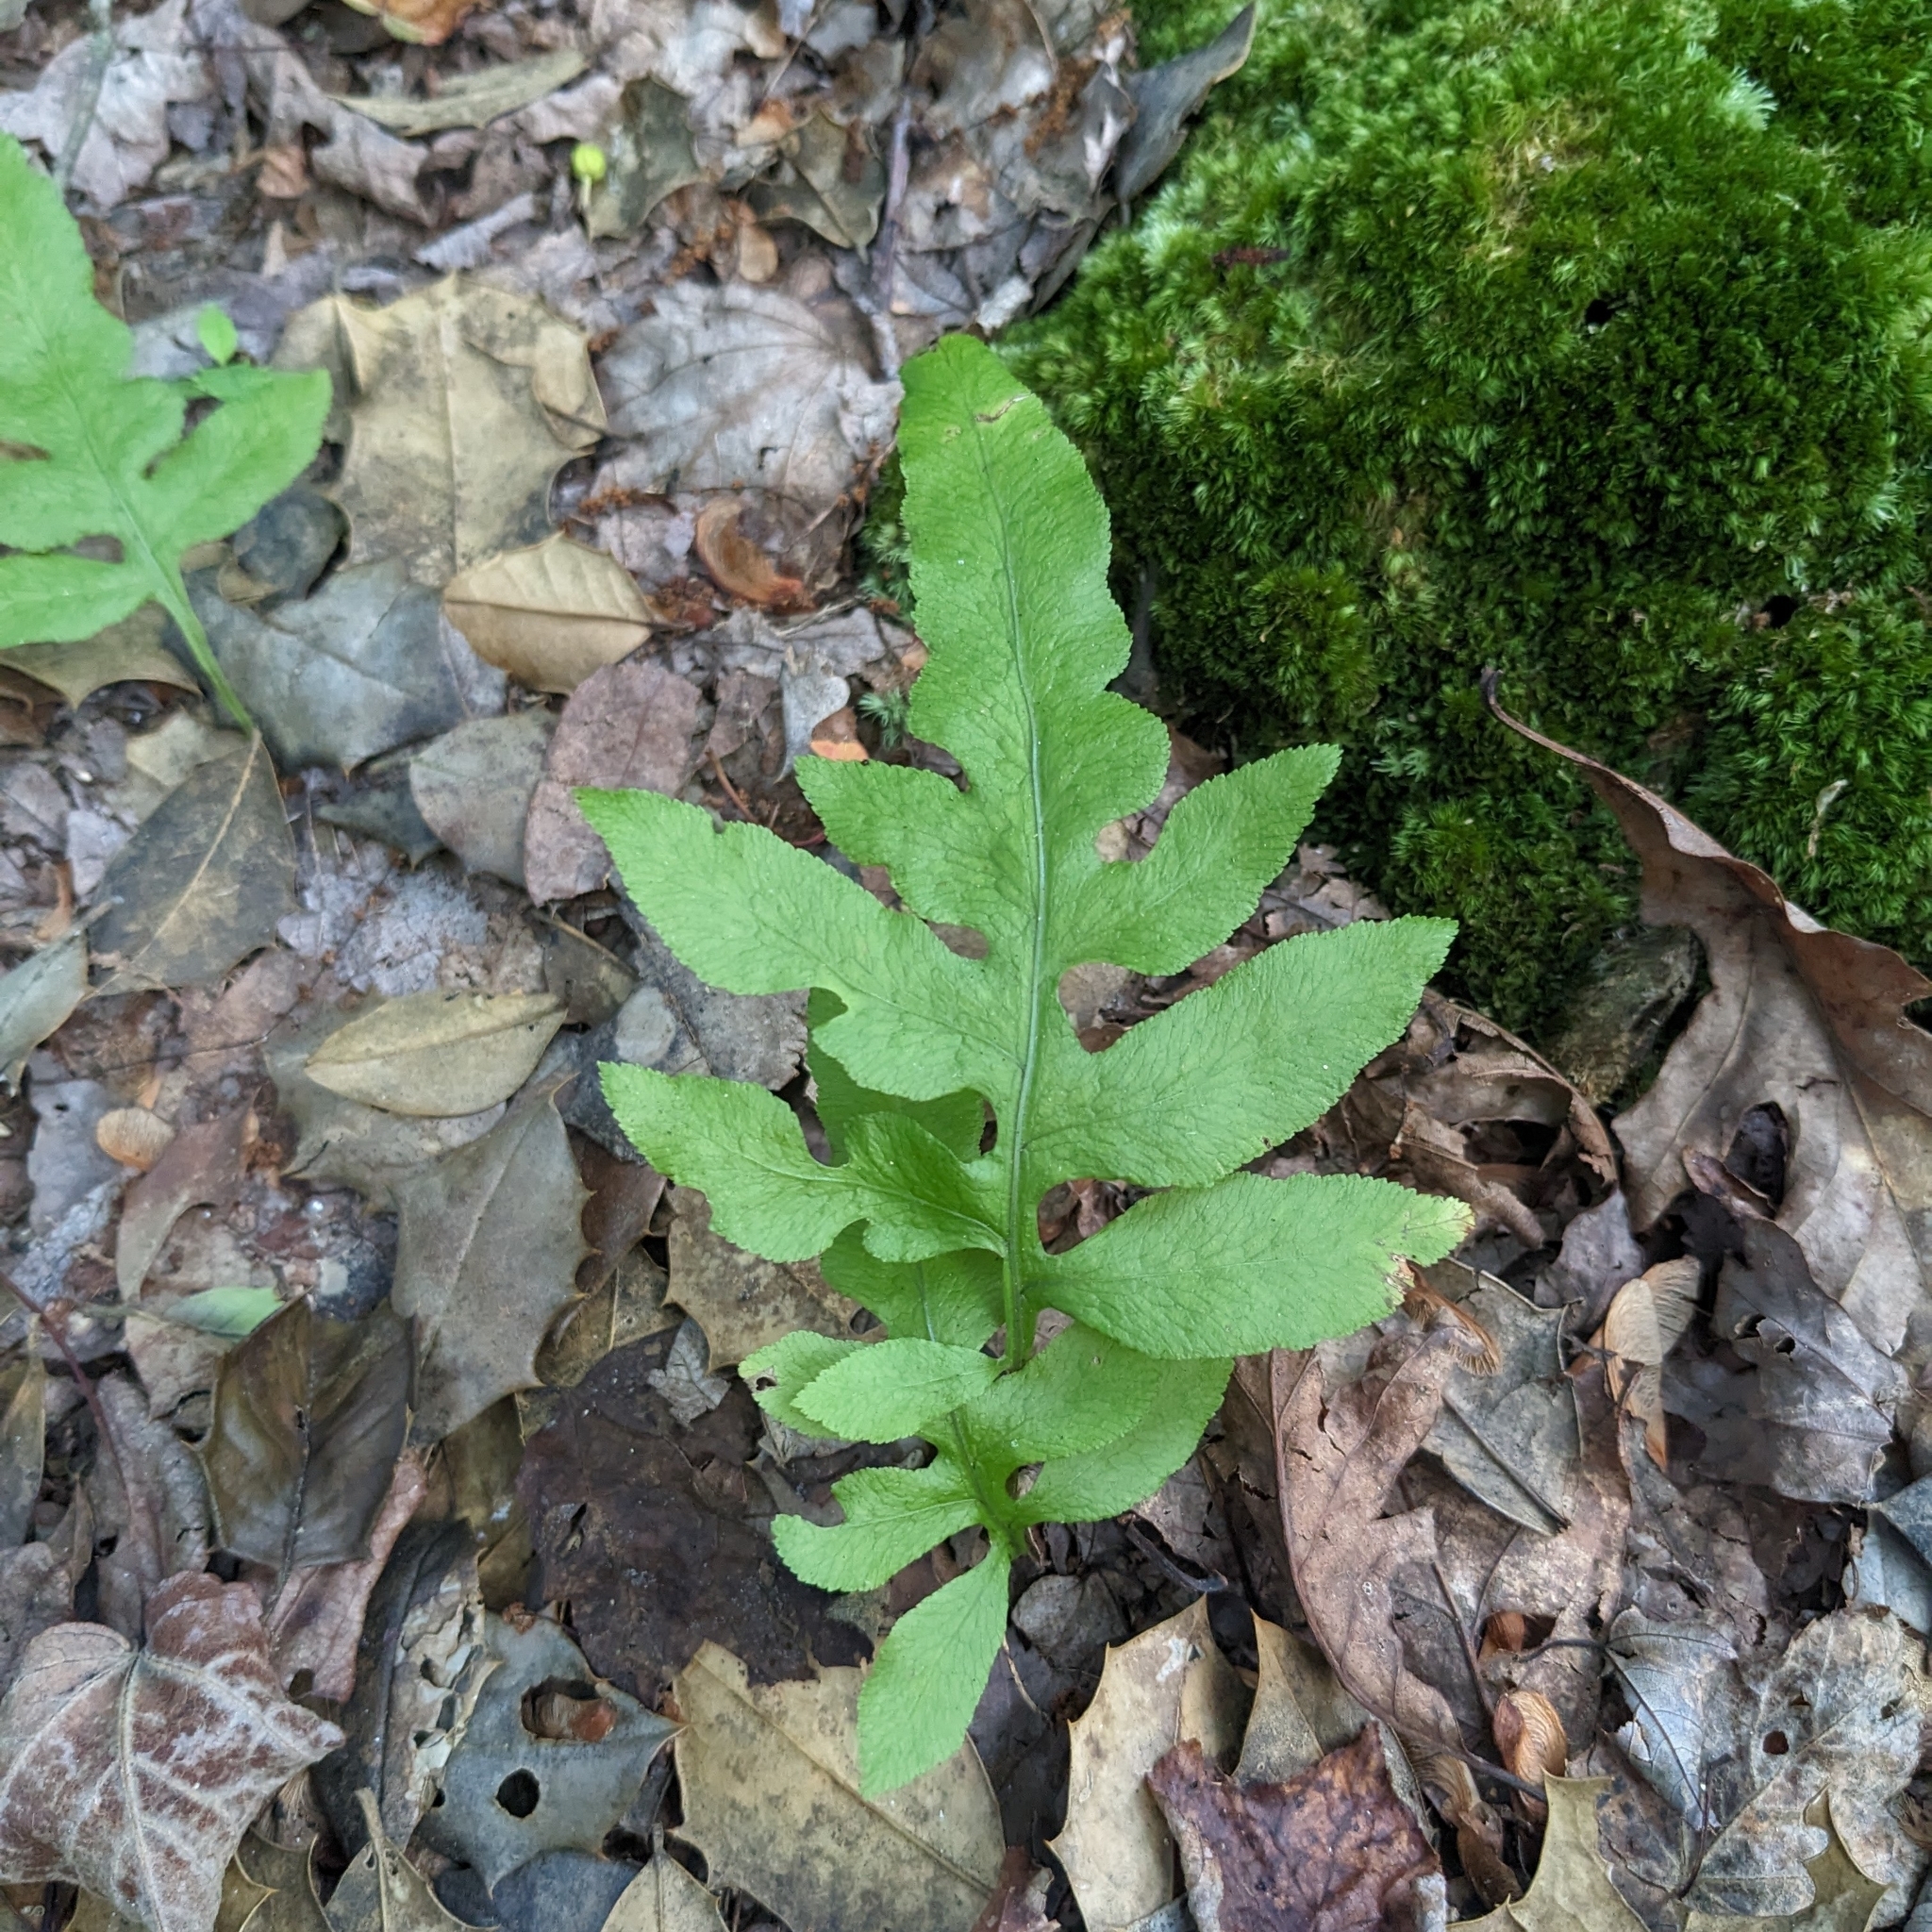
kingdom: Plantae
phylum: Tracheophyta
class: Polypodiopsida
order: Polypodiales
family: Blechnaceae
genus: Lorinseria
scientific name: Lorinseria areolata
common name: Dwarf chain fern
